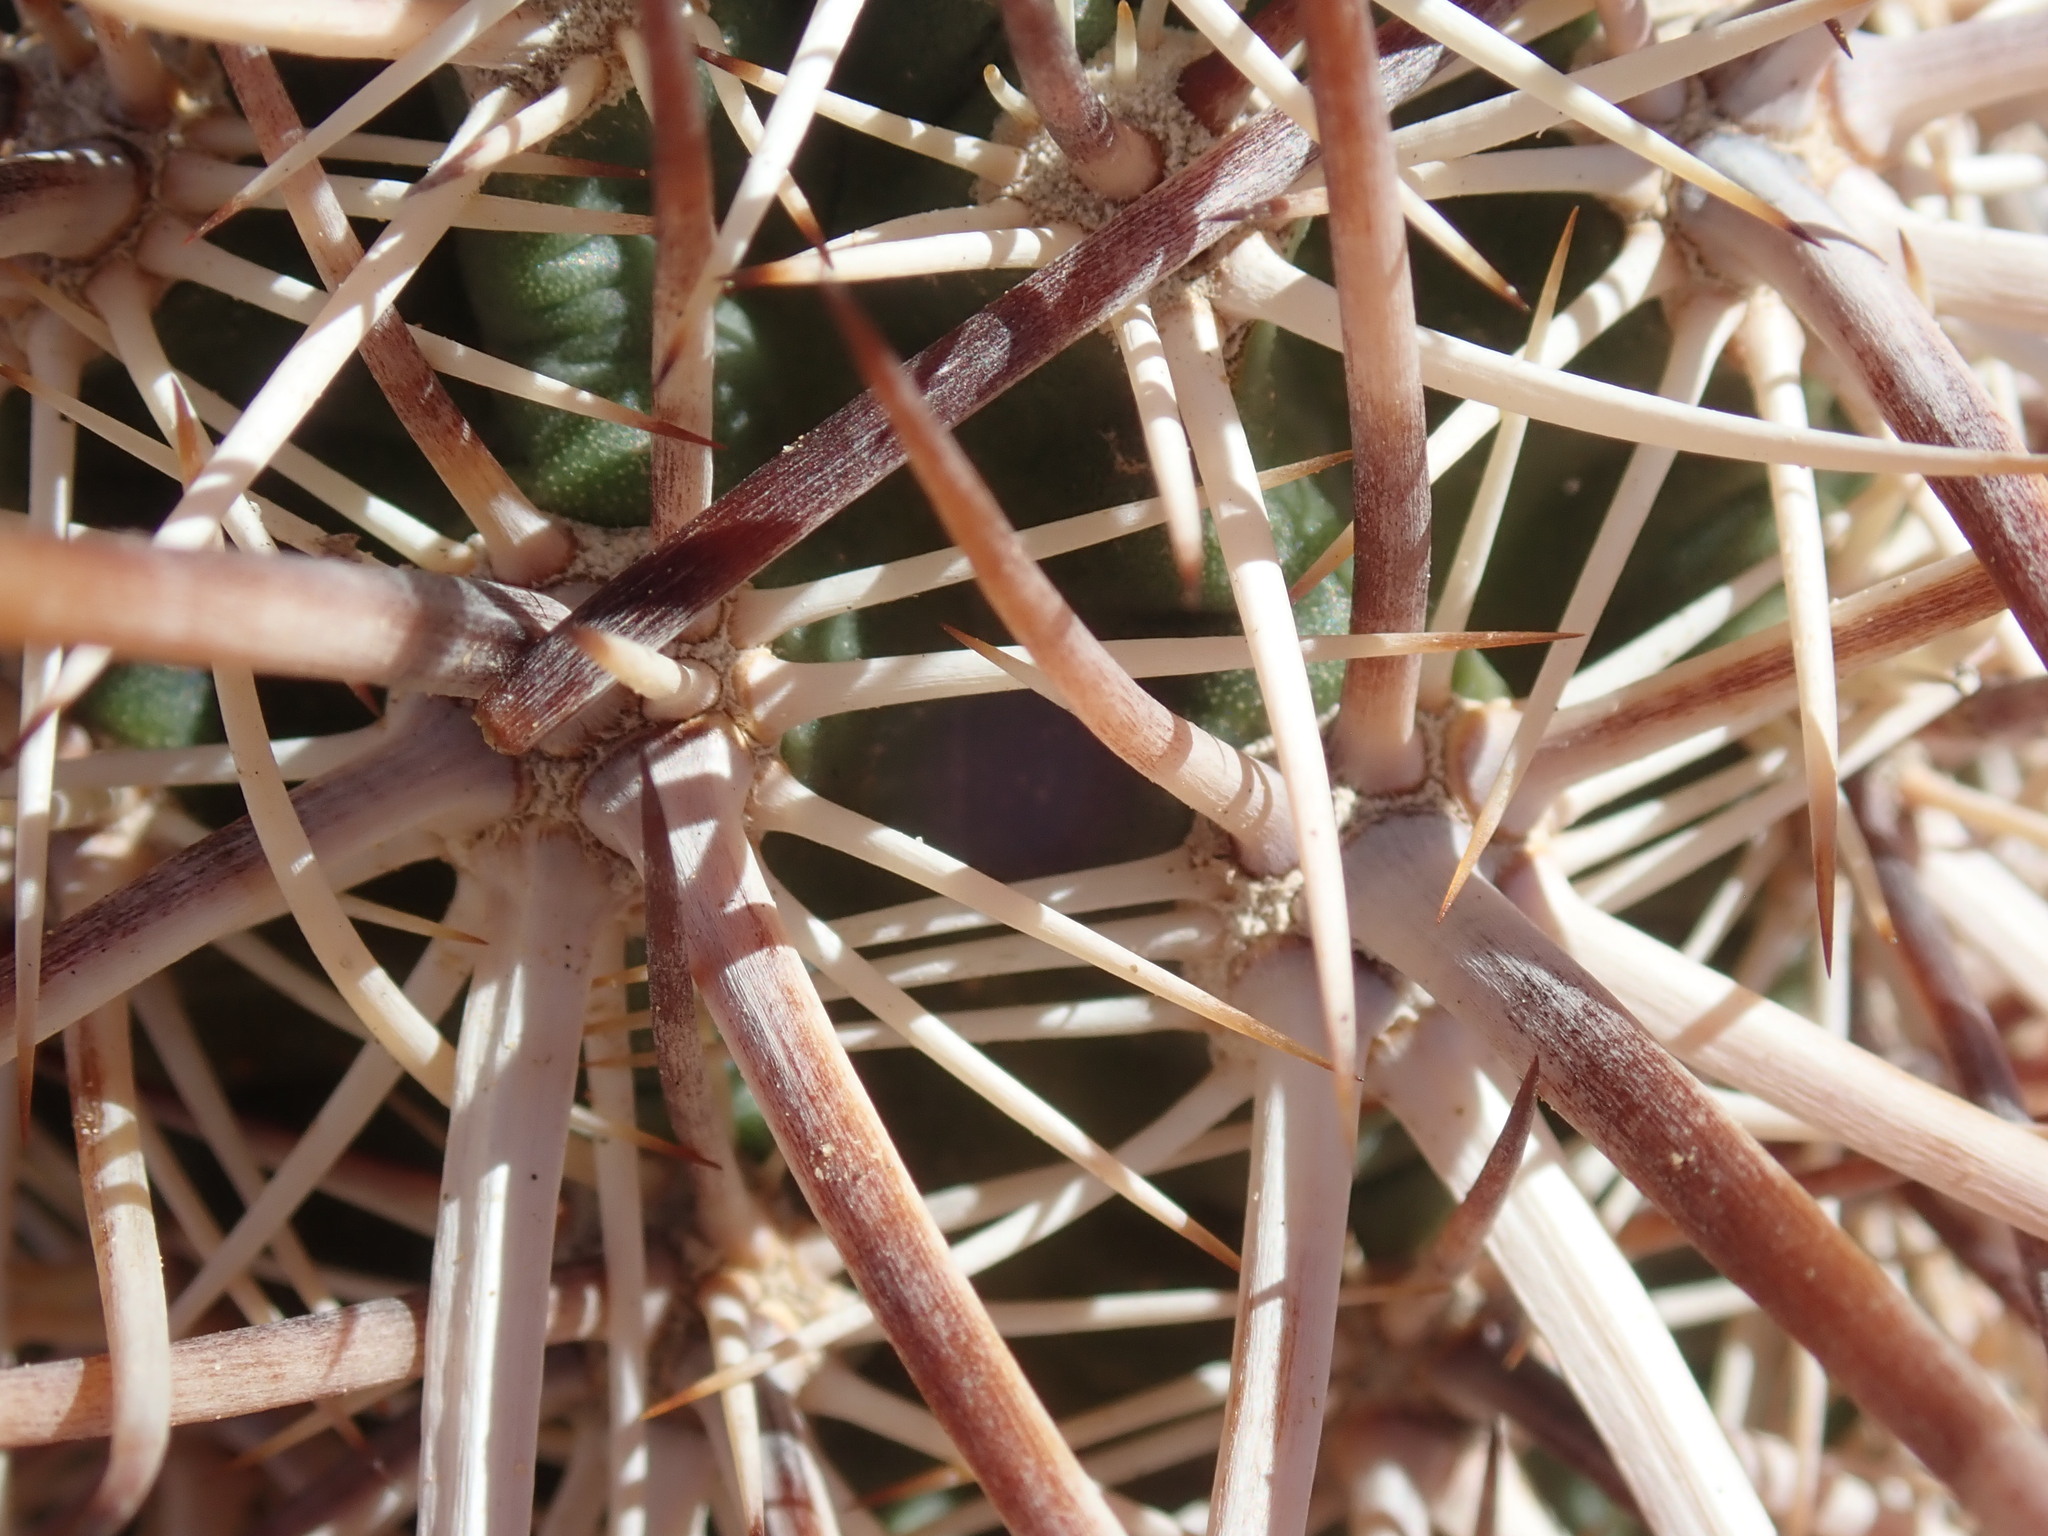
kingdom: Plantae
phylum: Tracheophyta
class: Magnoliopsida
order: Caryophyllales
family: Cactaceae
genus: Echinocereus
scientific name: Echinocereus engelmannii
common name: Engelmann's hedgehog cactus
